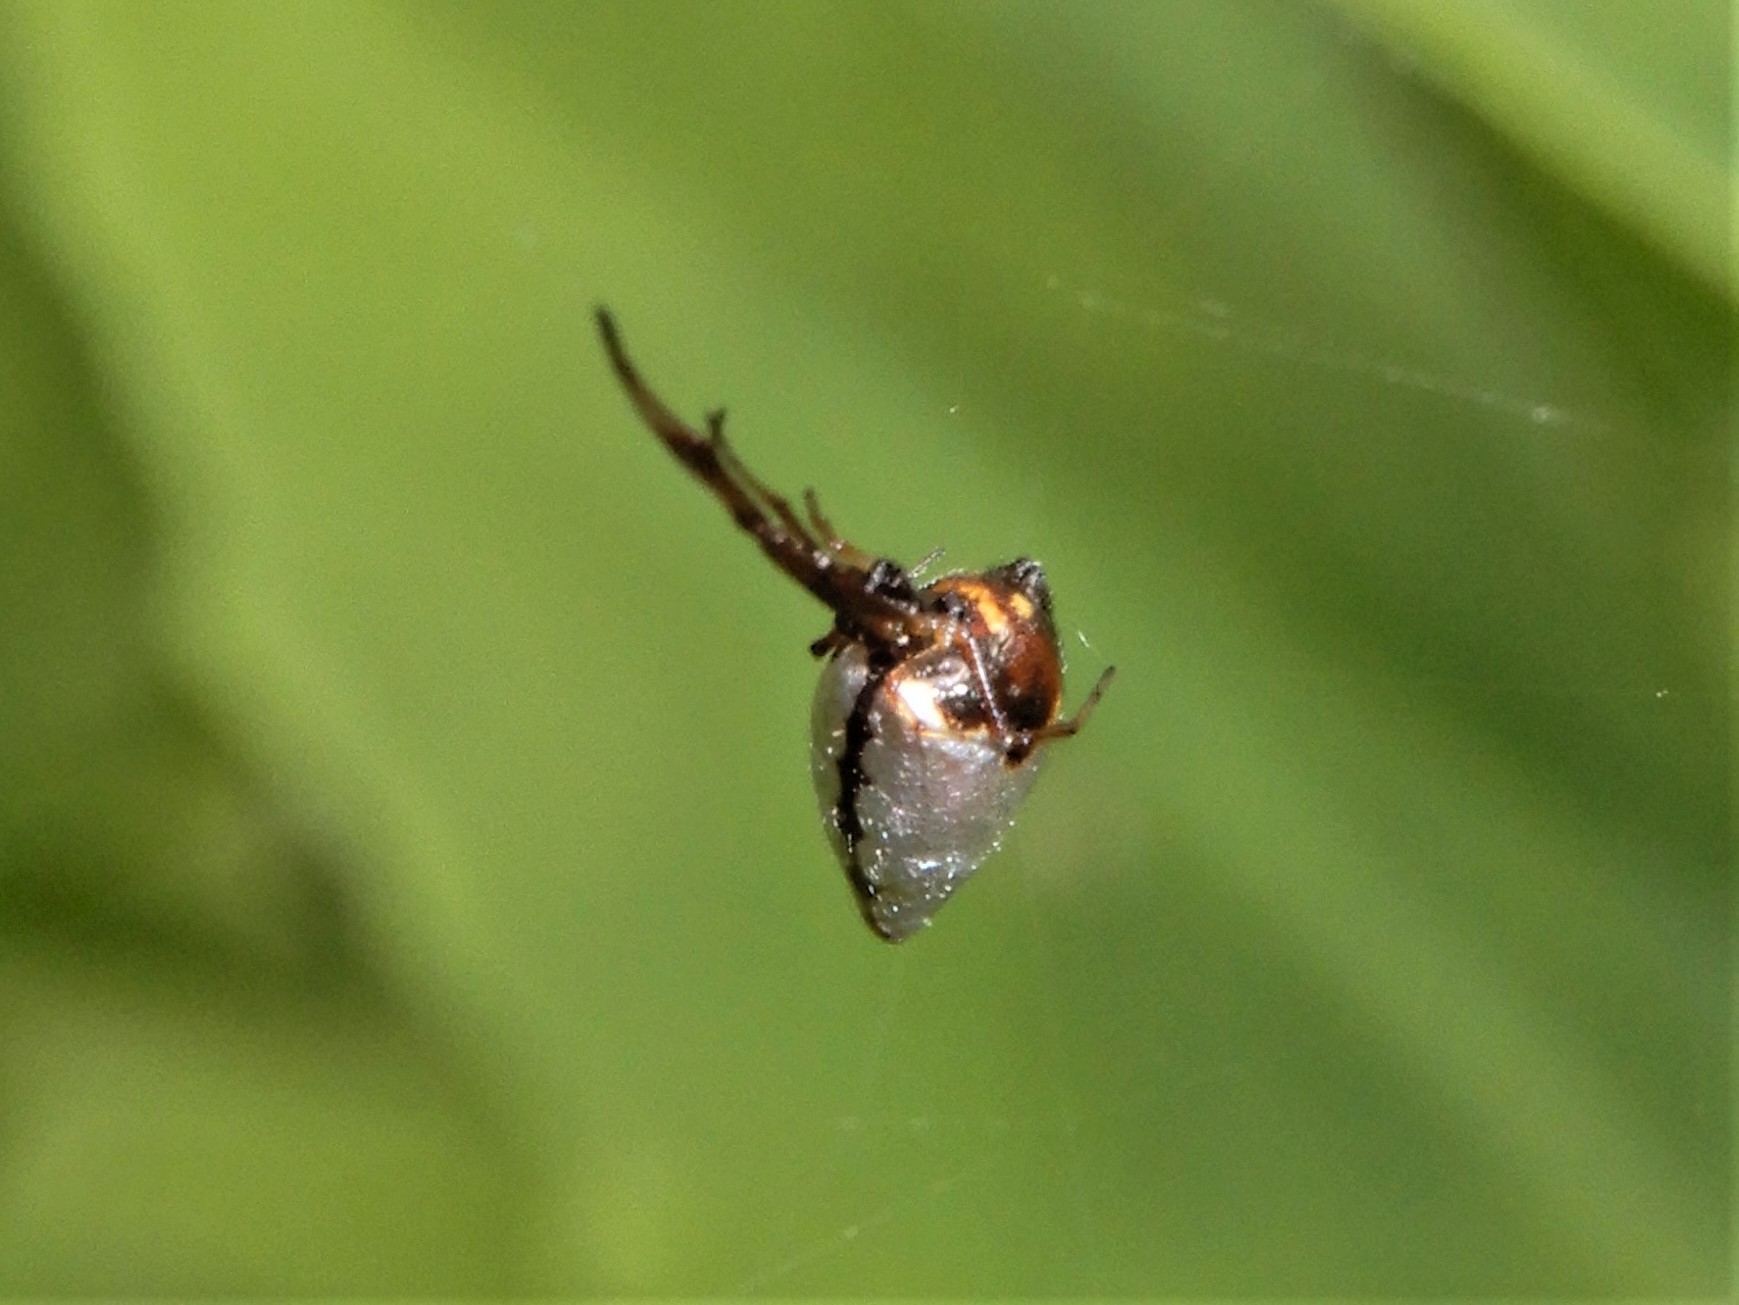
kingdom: Animalia
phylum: Arthropoda
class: Arachnida
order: Araneae
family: Theridiidae
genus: Argyrodes
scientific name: Argyrodes antipodianus
